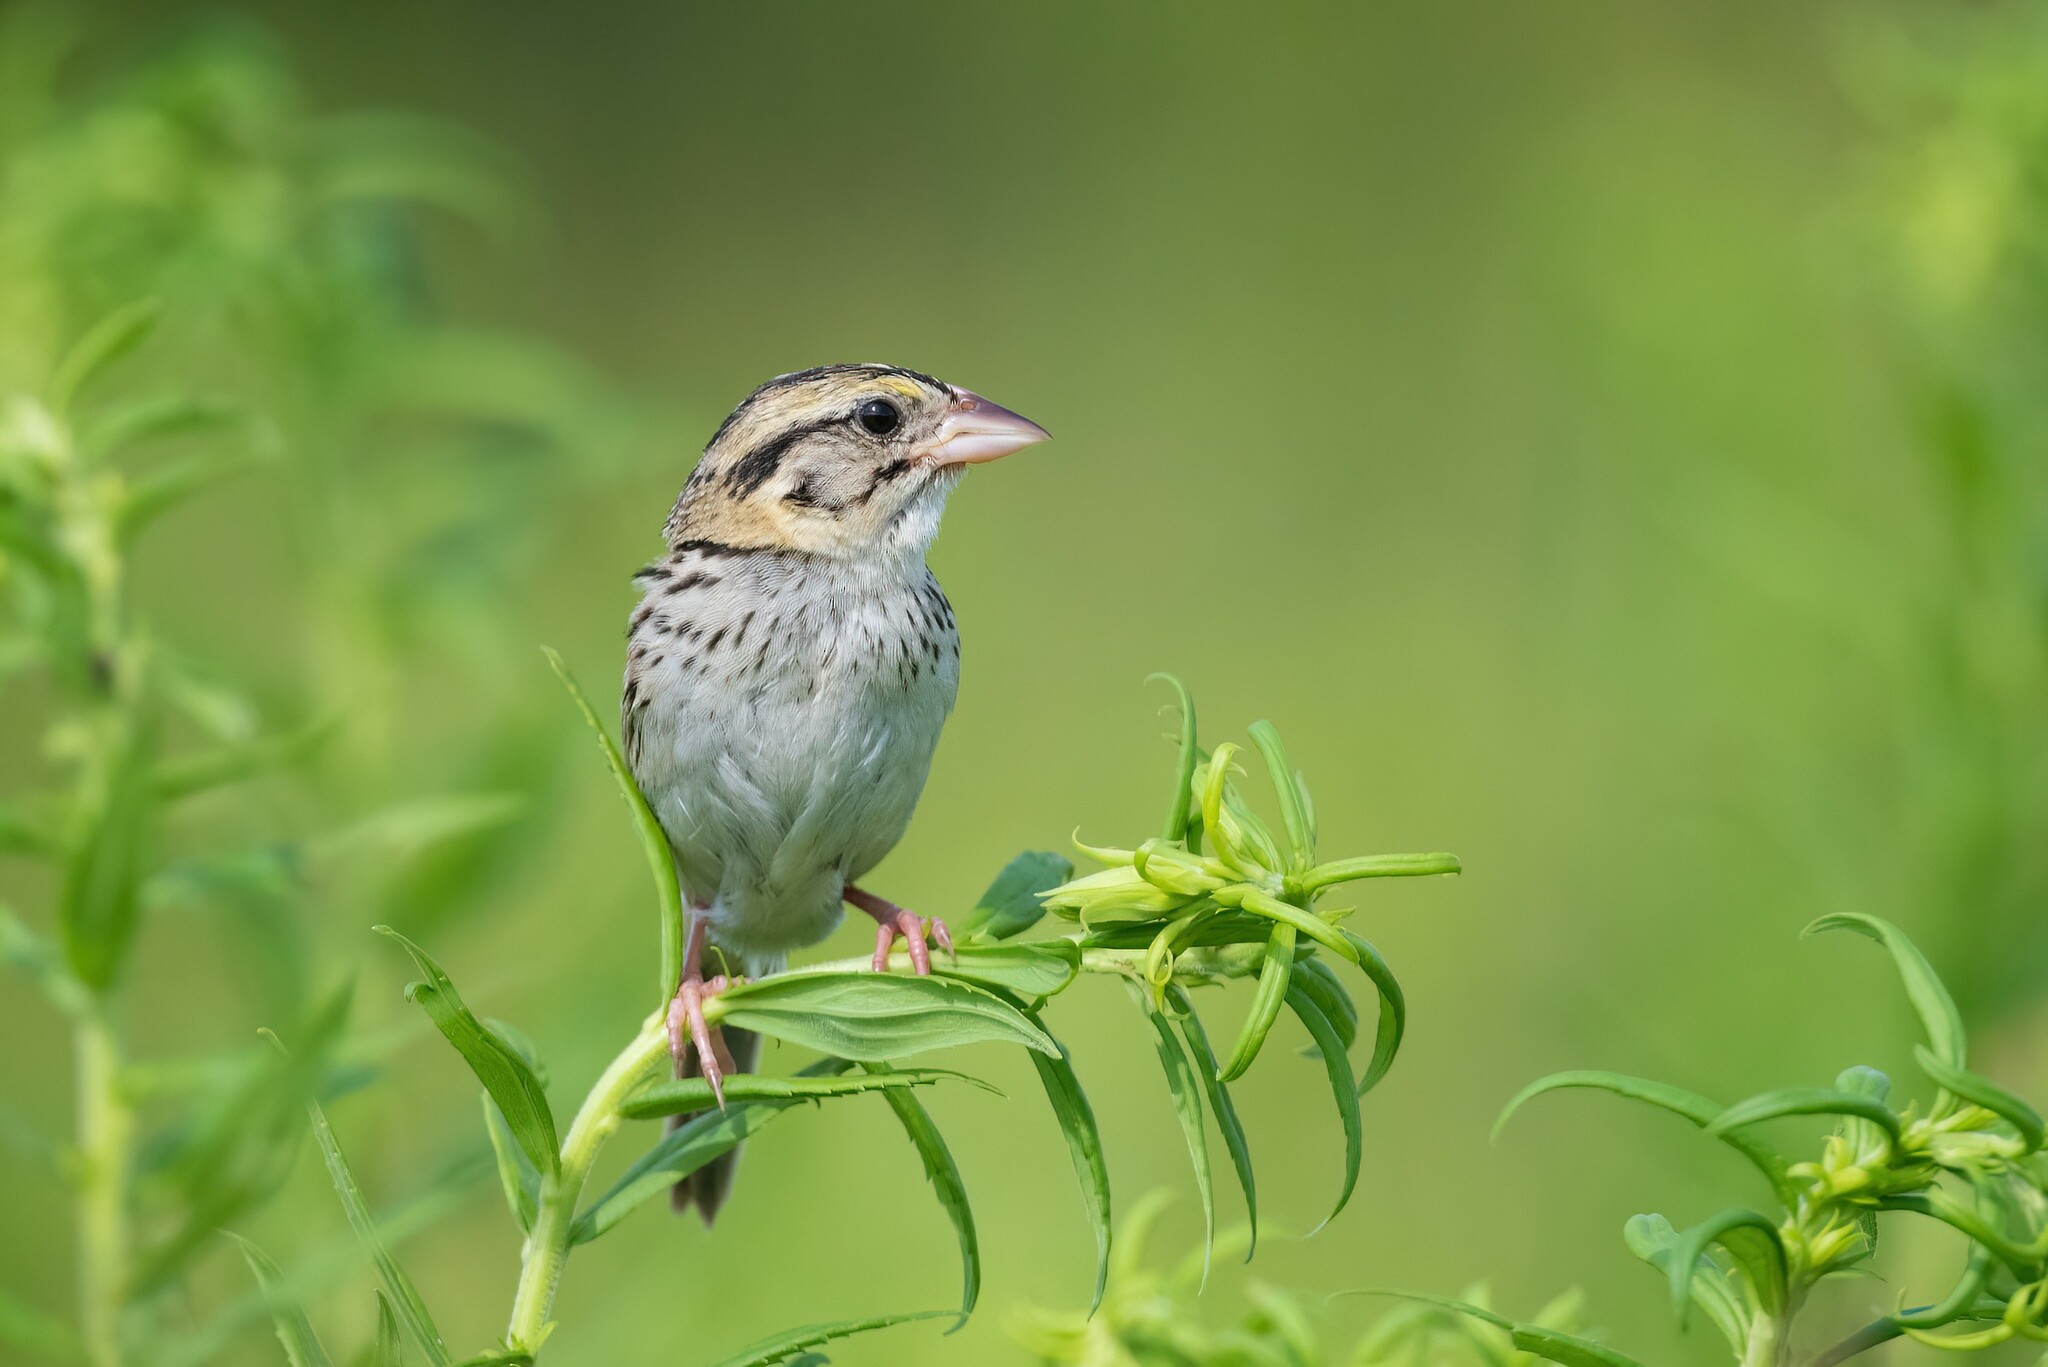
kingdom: Animalia
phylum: Chordata
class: Aves
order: Passeriformes
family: Passerellidae
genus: Centronyx
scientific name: Centronyx henslowii
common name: Henslow's sparrow
